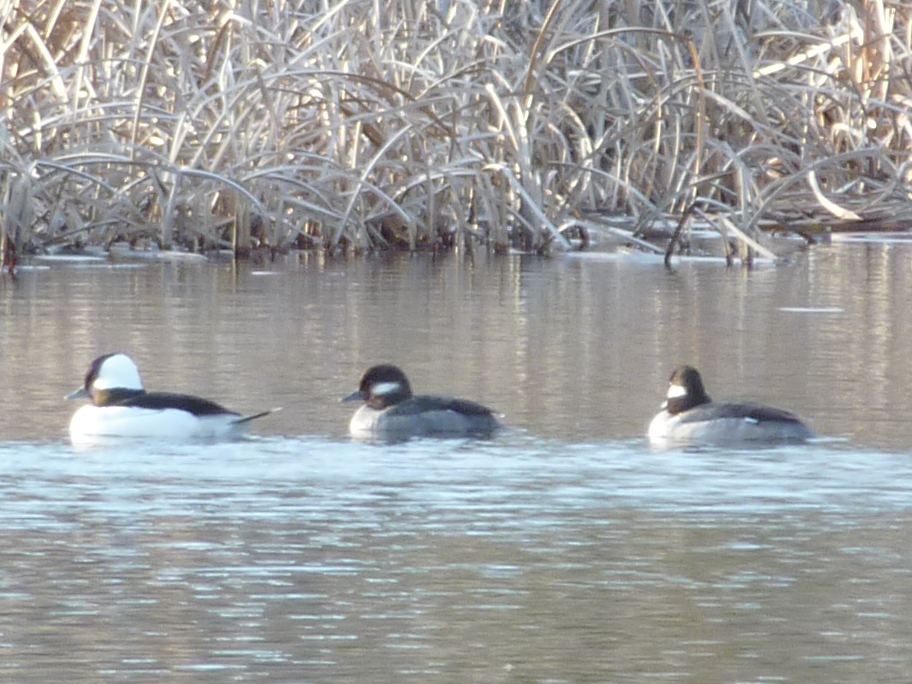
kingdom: Animalia
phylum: Chordata
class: Aves
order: Anseriformes
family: Anatidae
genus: Bucephala
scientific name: Bucephala albeola
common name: Bufflehead
